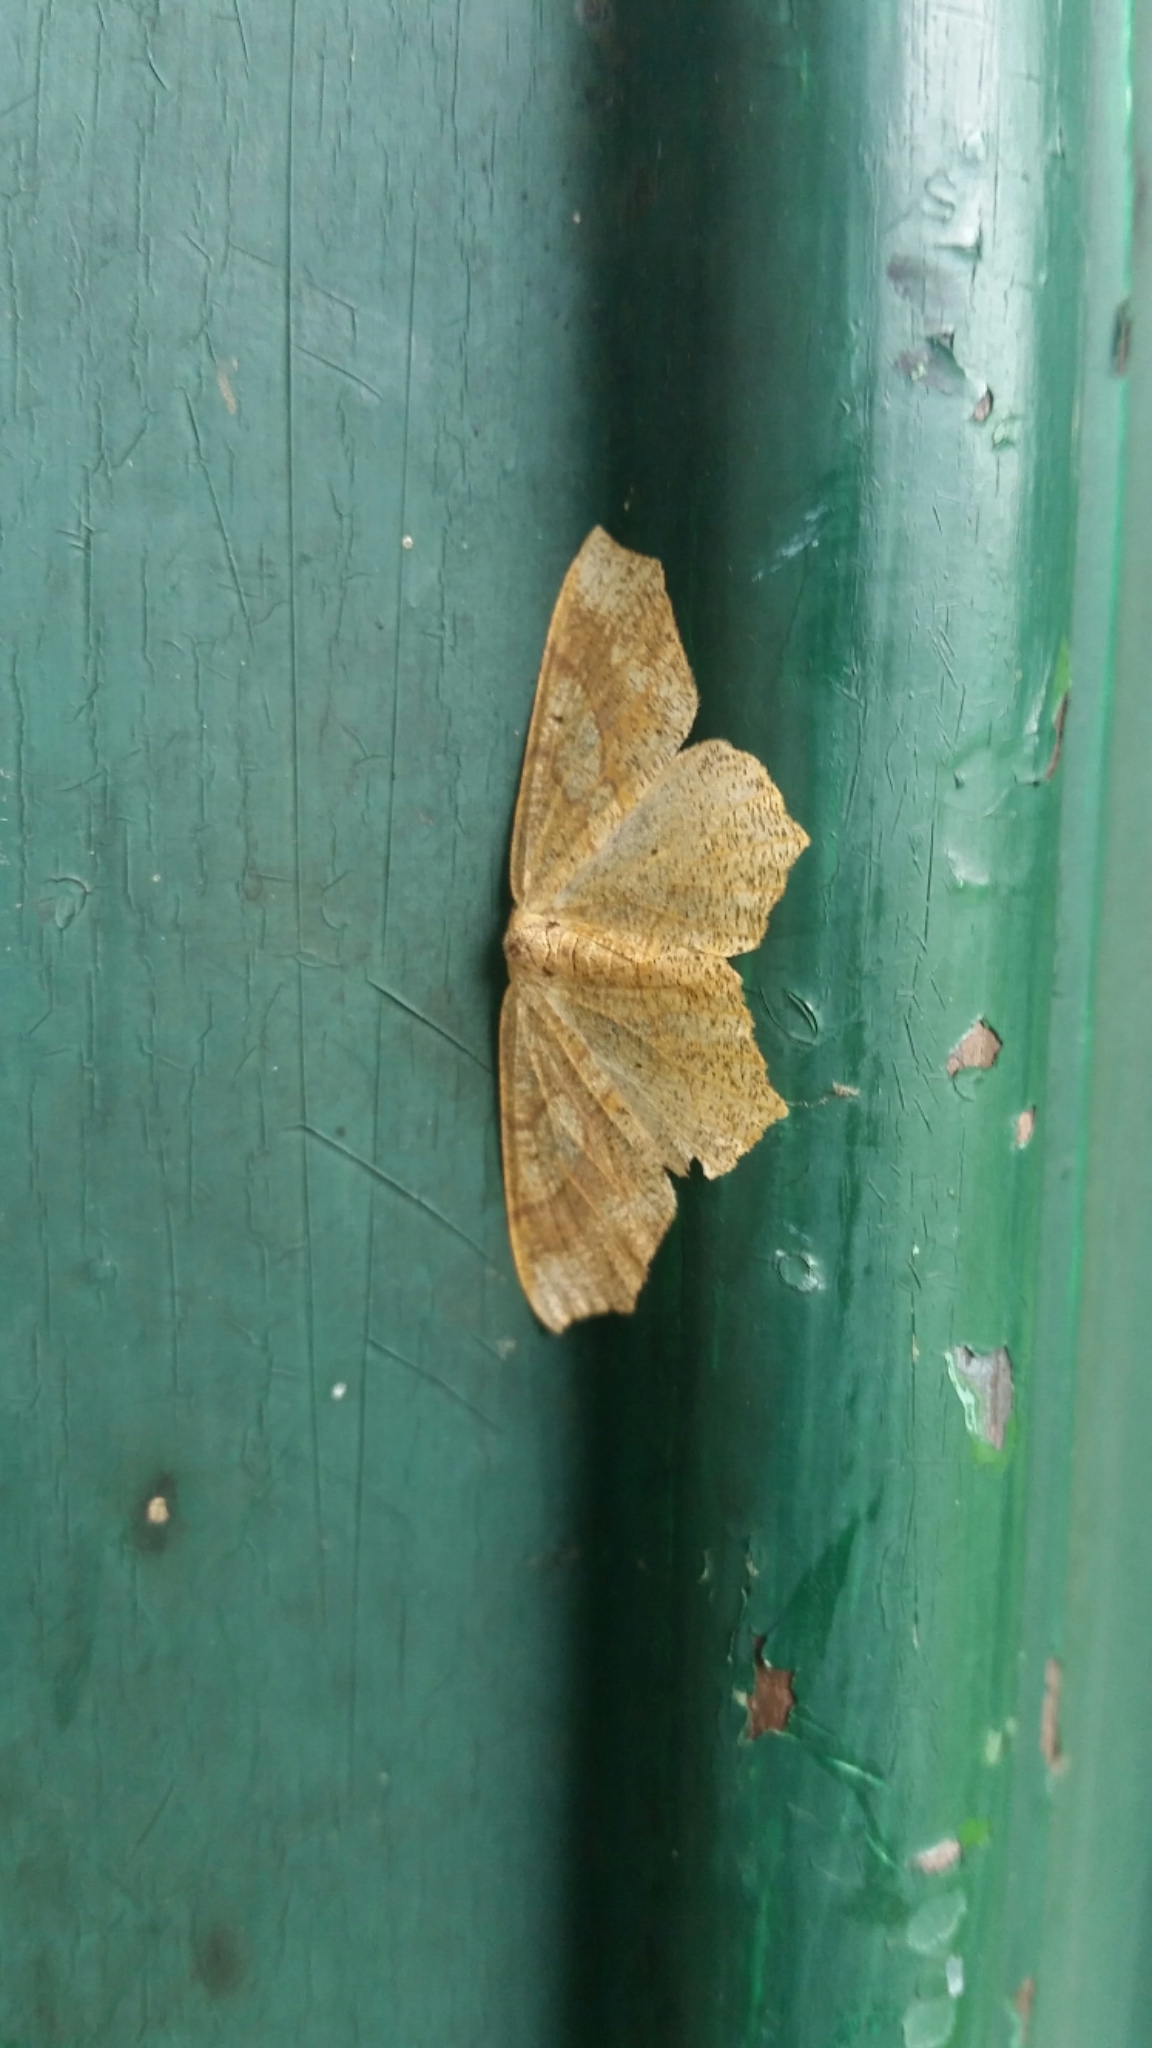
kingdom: Animalia
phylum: Arthropoda
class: Insecta
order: Lepidoptera
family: Geometridae
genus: Besma
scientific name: Besma quercivoraria
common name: Oak besma
